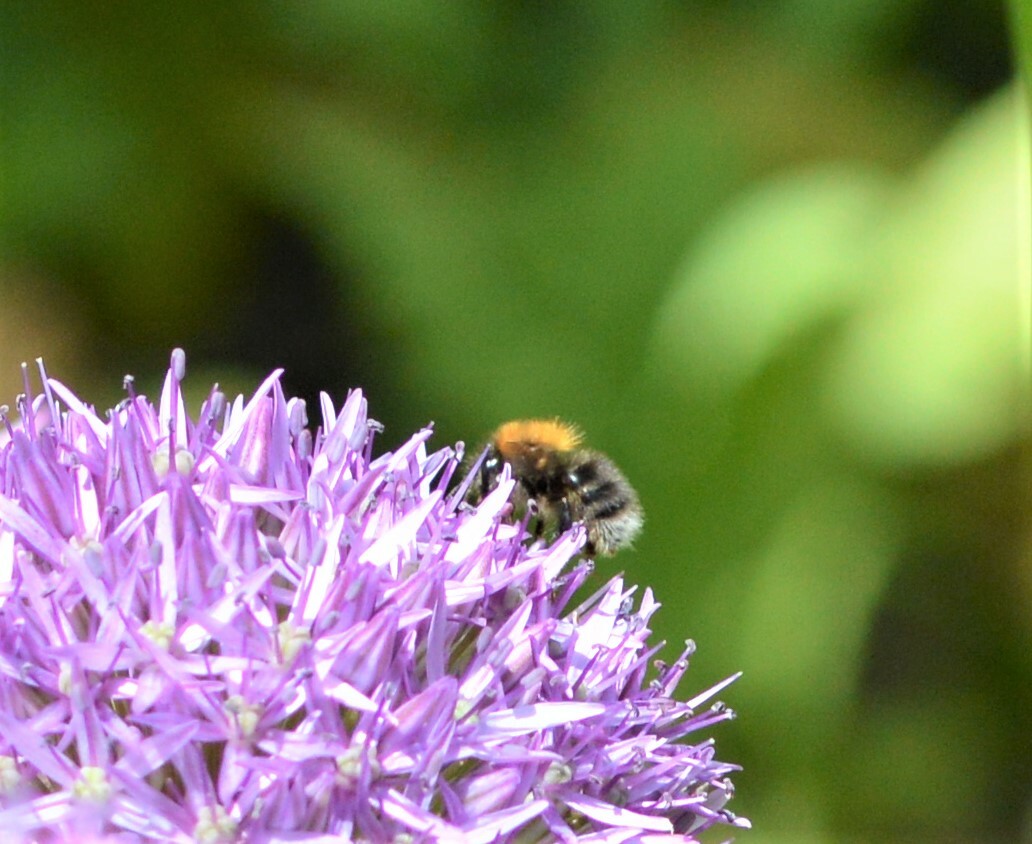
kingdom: Animalia
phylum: Arthropoda
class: Insecta
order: Hymenoptera
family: Apidae
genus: Bombus
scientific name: Bombus hypnorum
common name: New garden bumblebee
